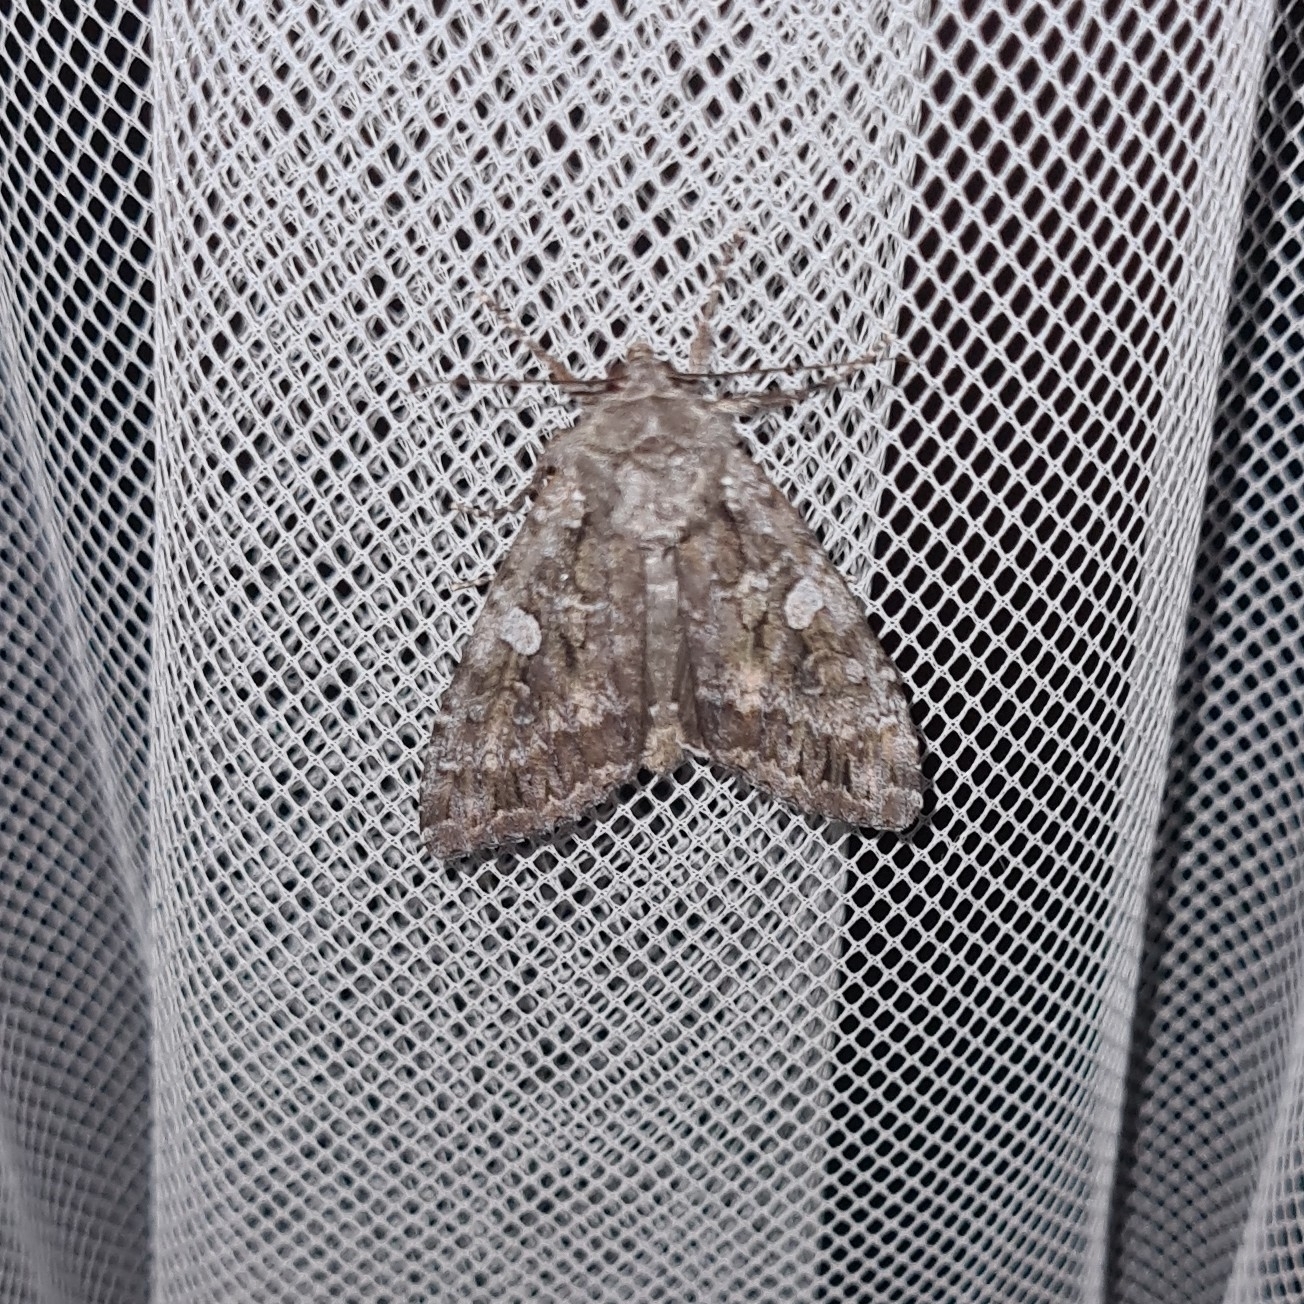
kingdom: Animalia
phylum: Arthropoda
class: Insecta
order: Lepidoptera
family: Noctuidae
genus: Eurois
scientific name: Eurois occulta
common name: Great brocade
